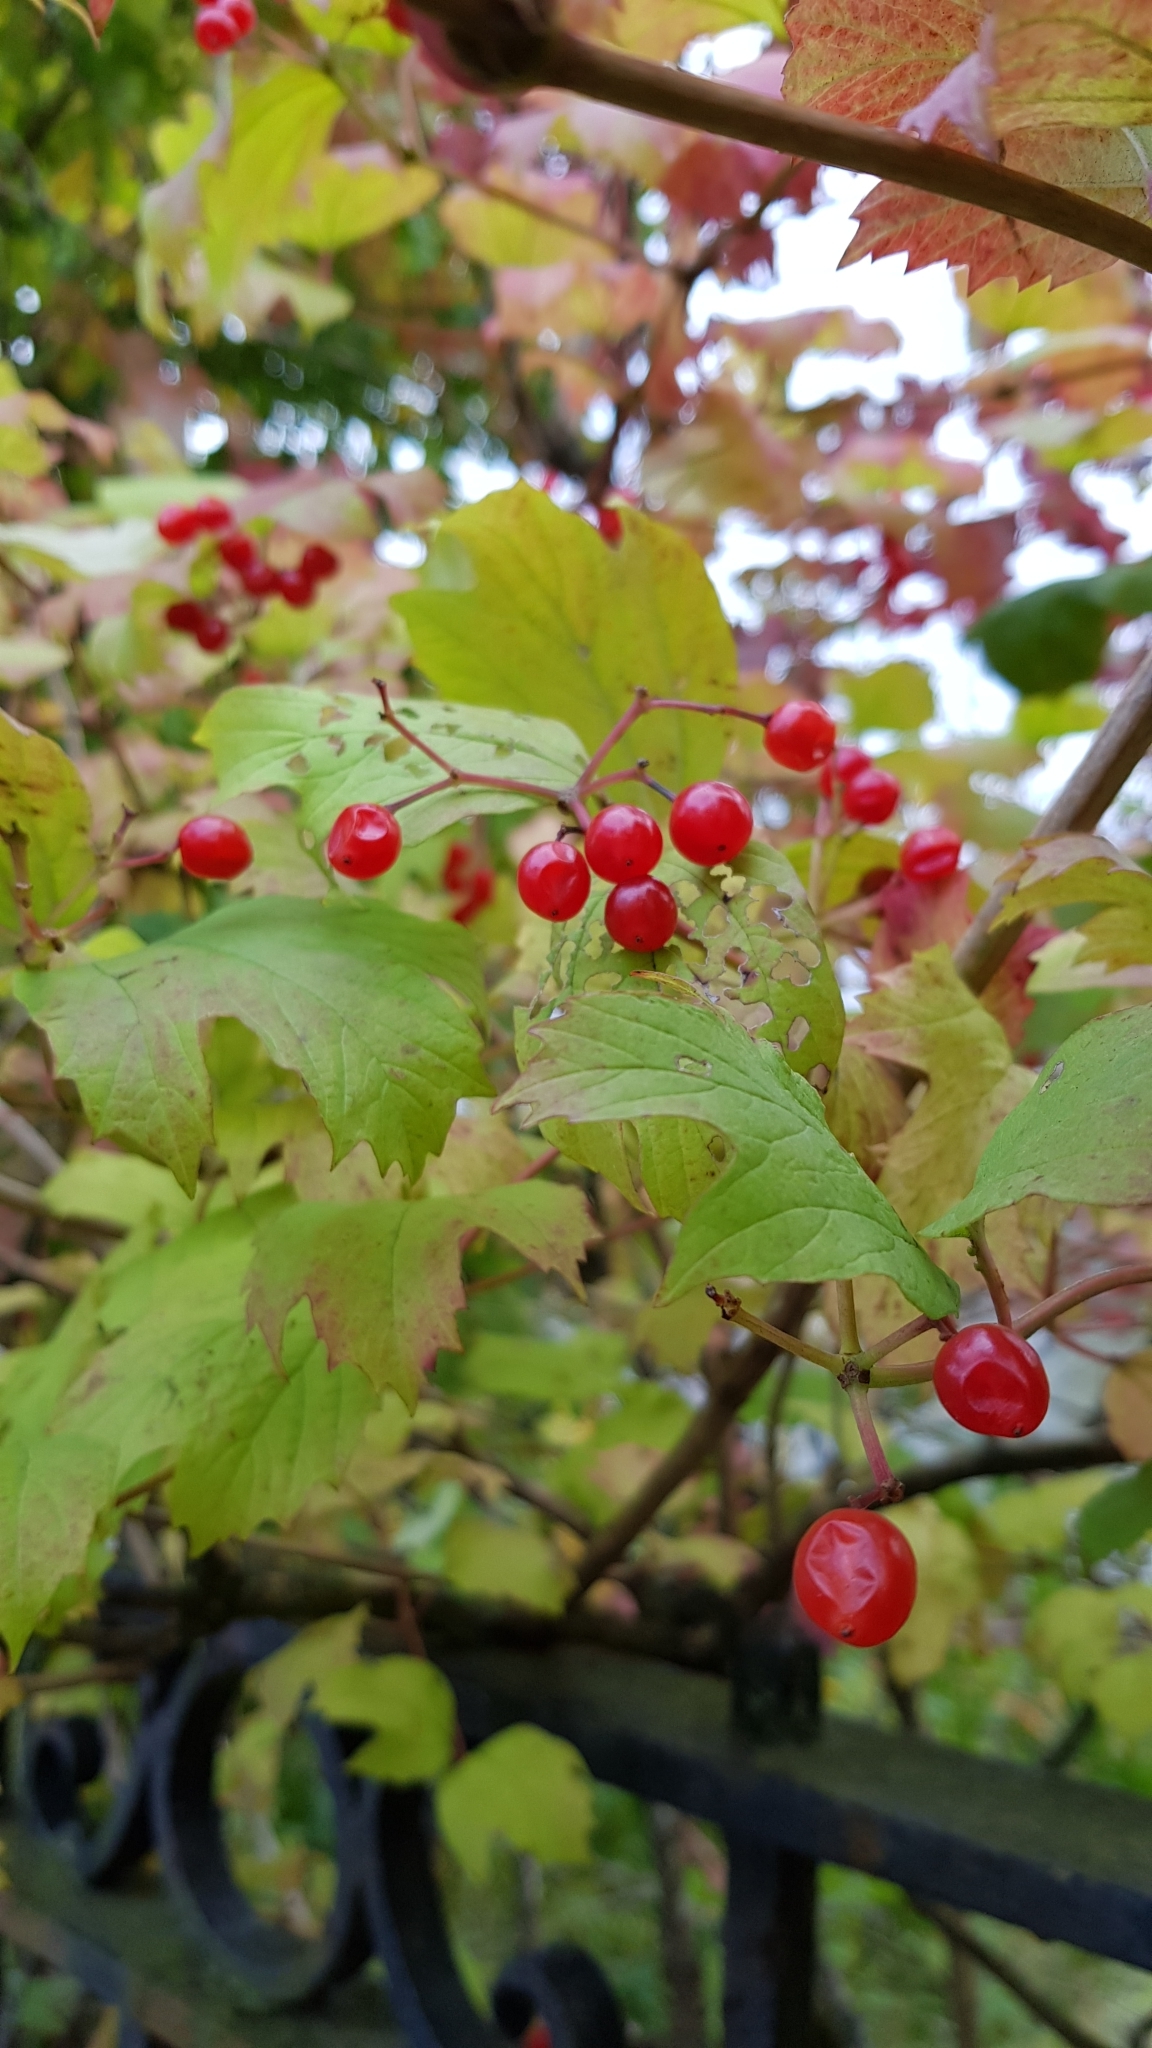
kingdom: Plantae
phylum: Tracheophyta
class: Magnoliopsida
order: Dipsacales
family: Viburnaceae
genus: Viburnum
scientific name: Viburnum opulus
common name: Guelder-rose
